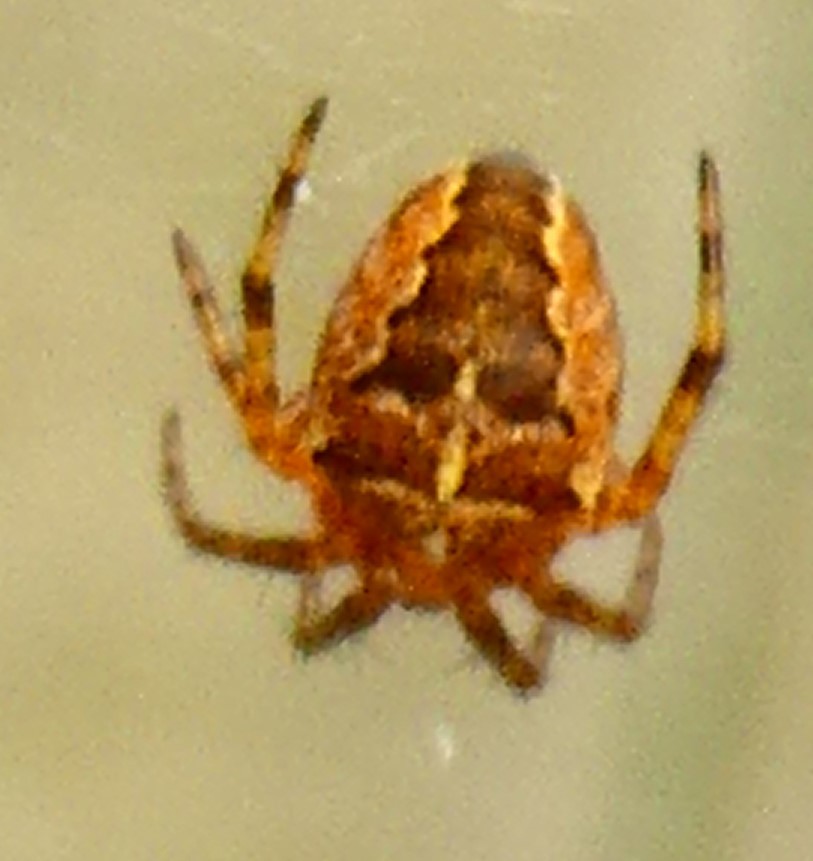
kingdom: Animalia
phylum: Arthropoda
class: Arachnida
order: Araneae
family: Araneidae
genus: Araneus
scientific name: Araneus diadematus
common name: Cross orbweaver
